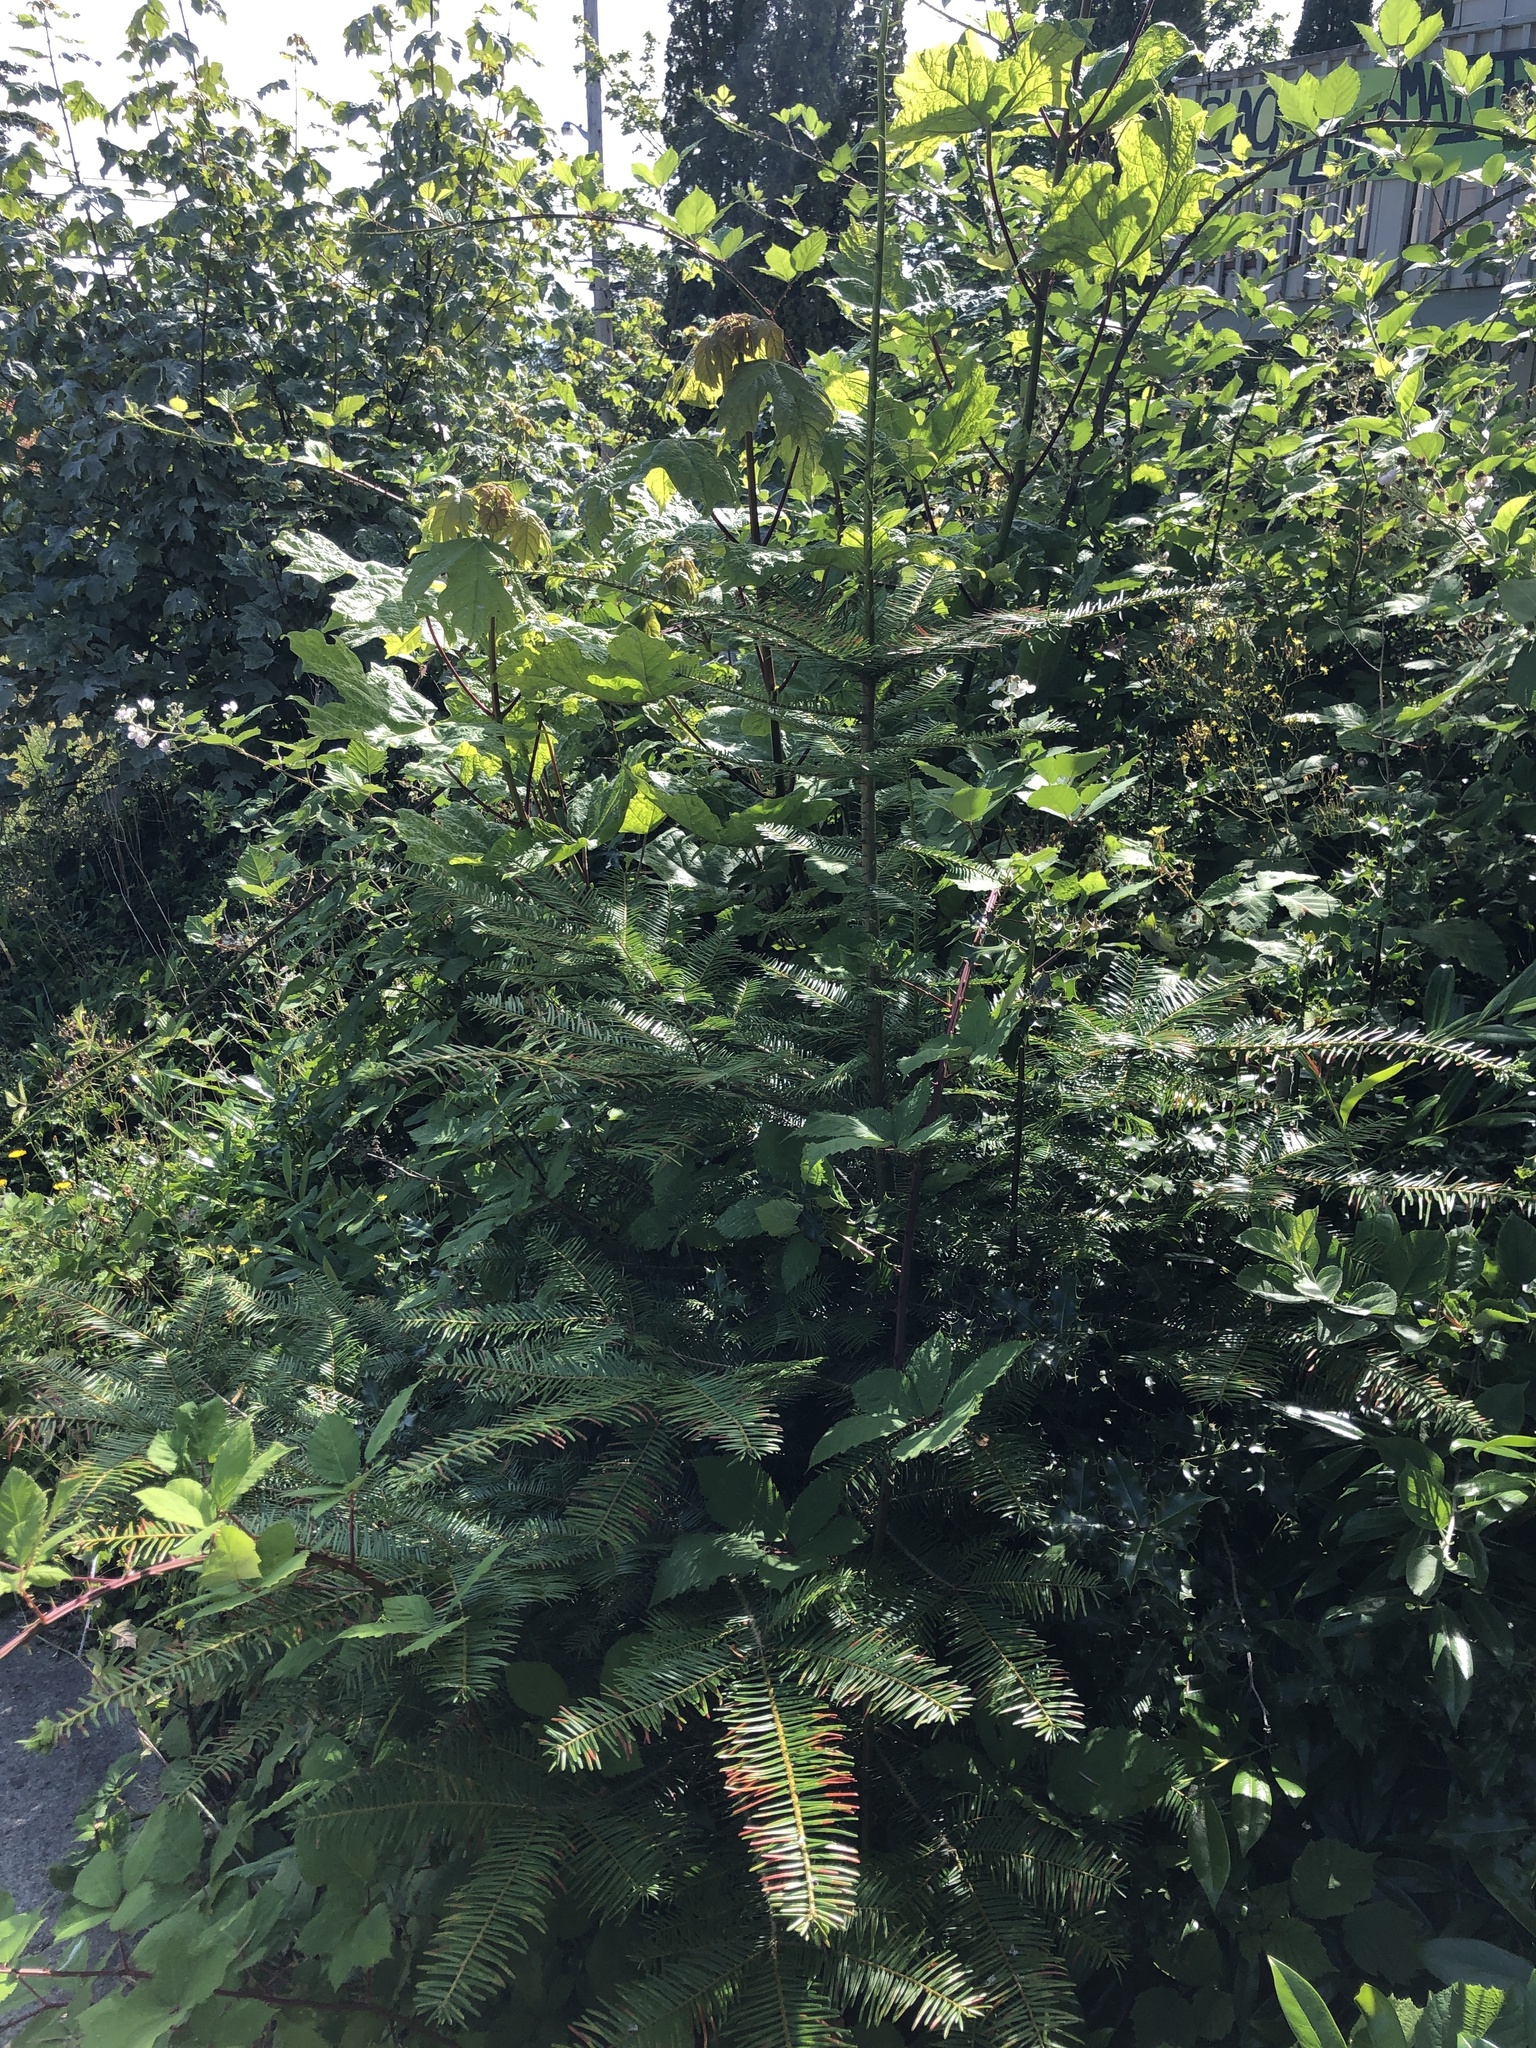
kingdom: Plantae
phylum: Tracheophyta
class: Pinopsida
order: Pinales
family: Pinaceae
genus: Abies
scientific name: Abies grandis
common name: Giant fir
